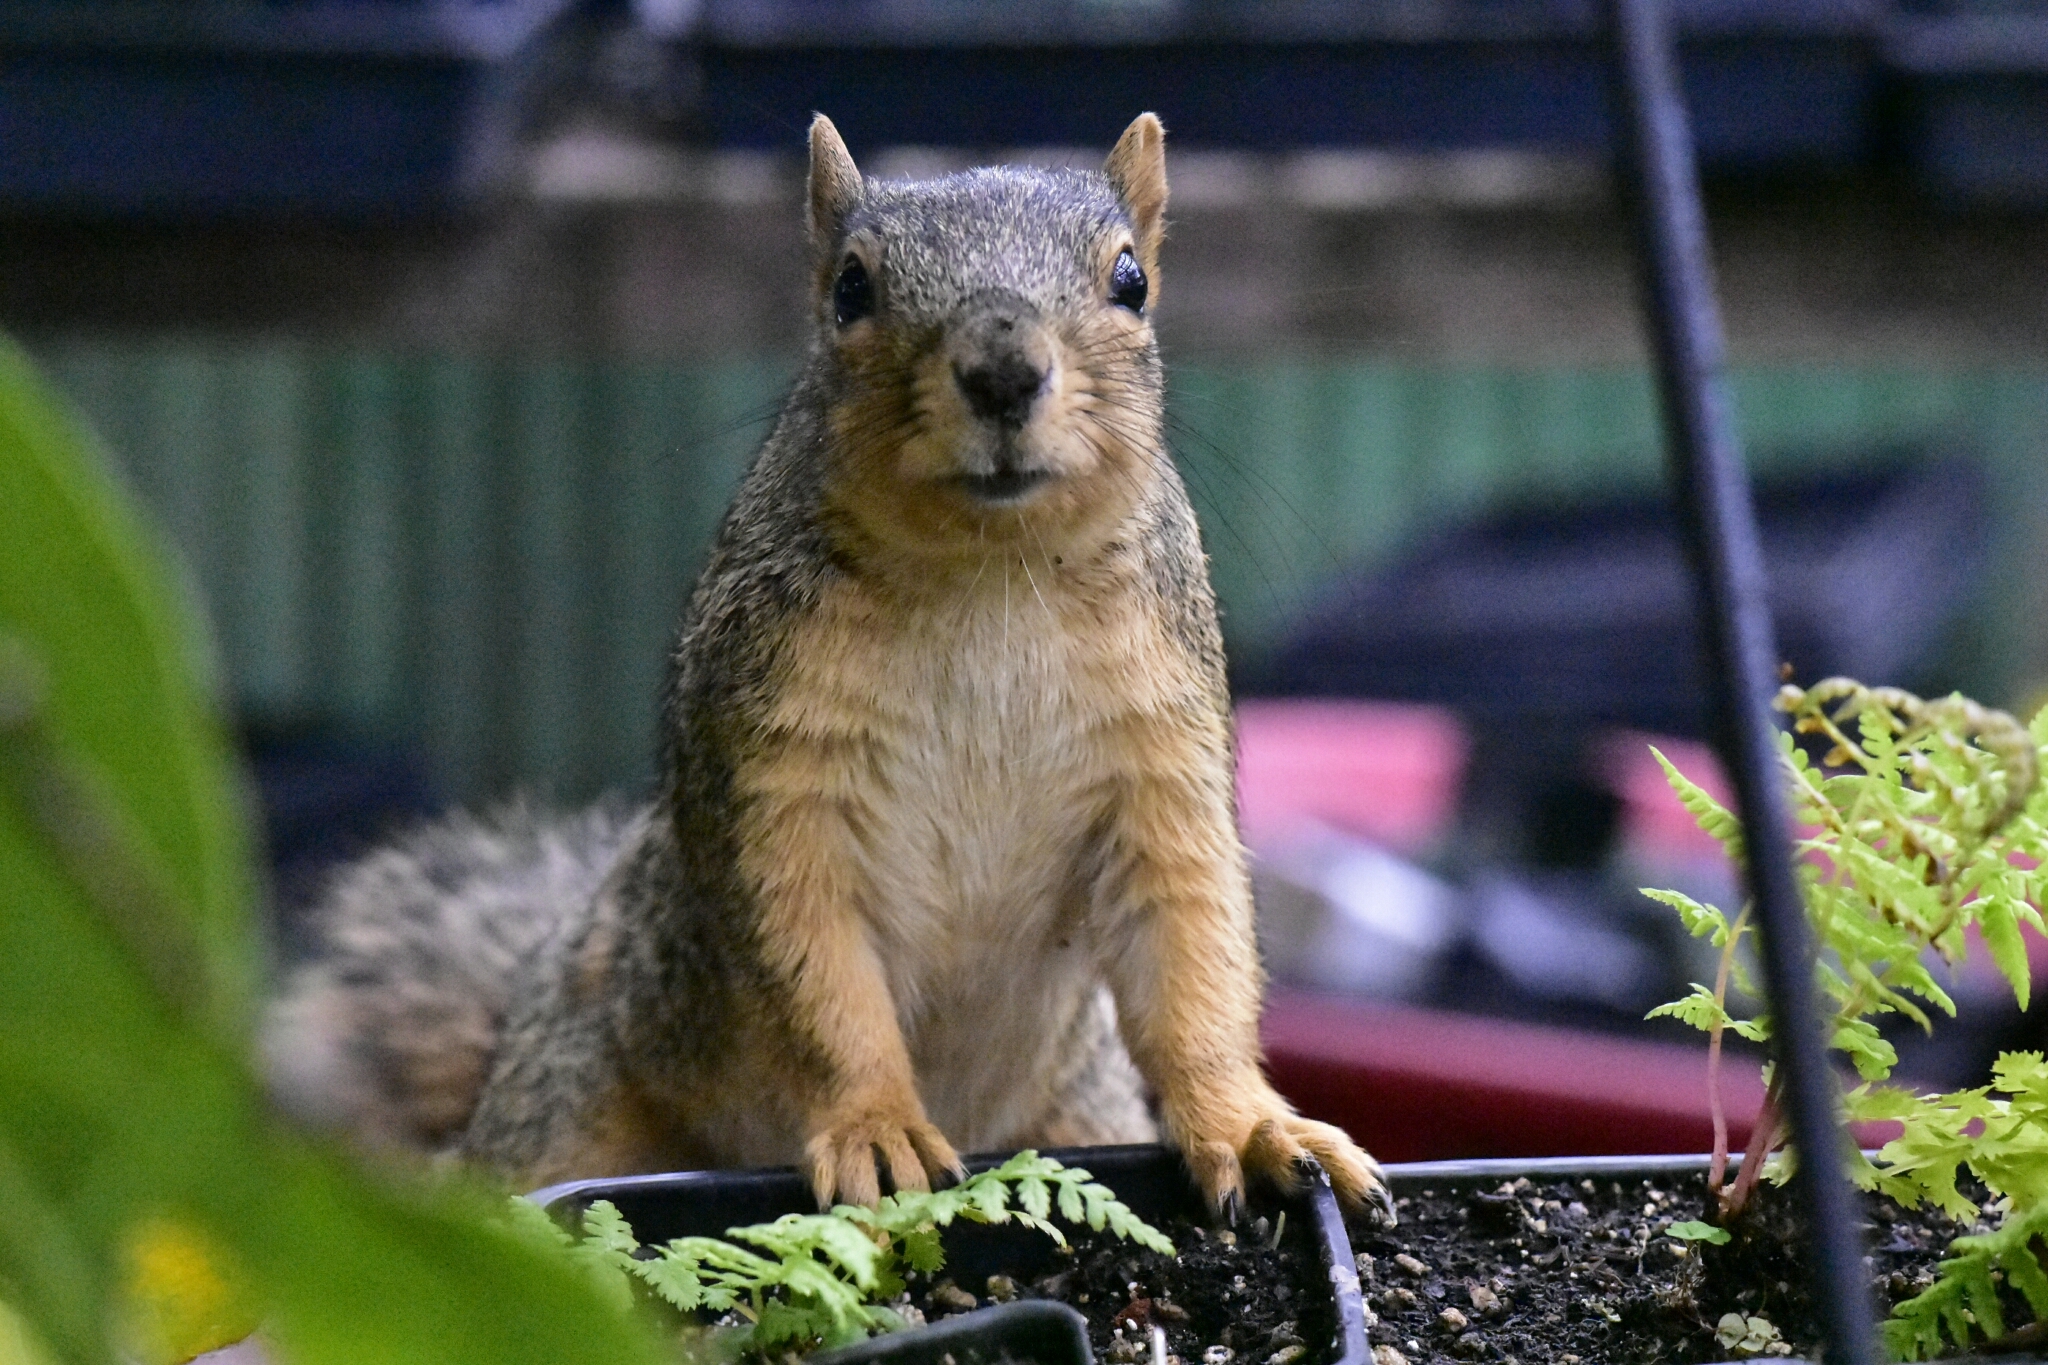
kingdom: Animalia
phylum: Chordata
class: Mammalia
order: Rodentia
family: Sciuridae
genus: Sciurus
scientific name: Sciurus niger
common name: Fox squirrel
